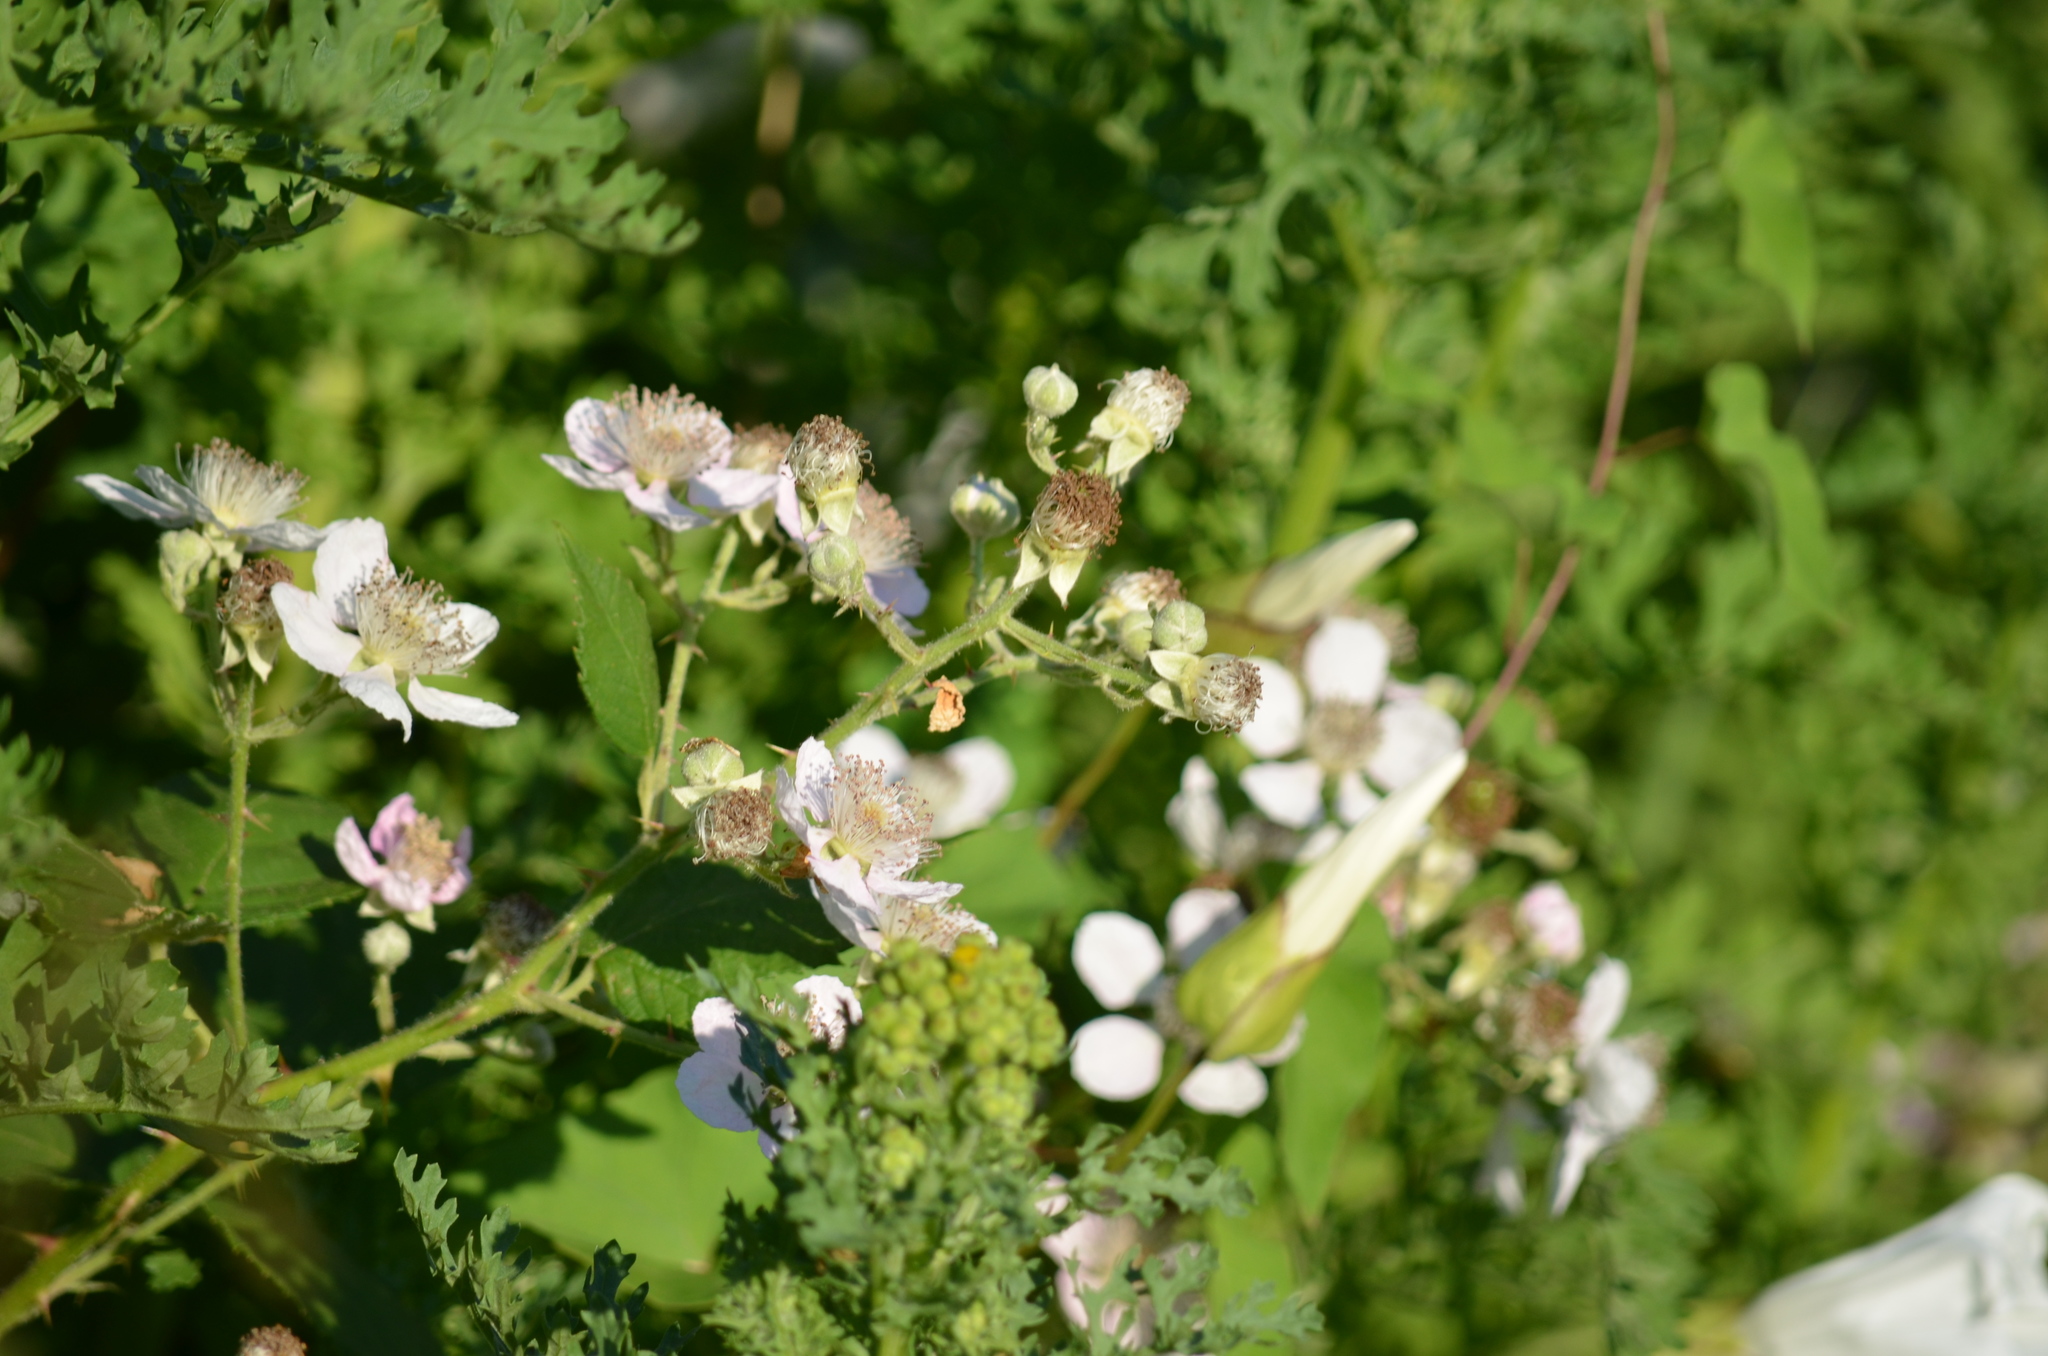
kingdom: Plantae
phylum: Tracheophyta
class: Magnoliopsida
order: Rosales
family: Rosaceae
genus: Rubus
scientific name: Rubus armeniacus
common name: Himalayan blackberry
